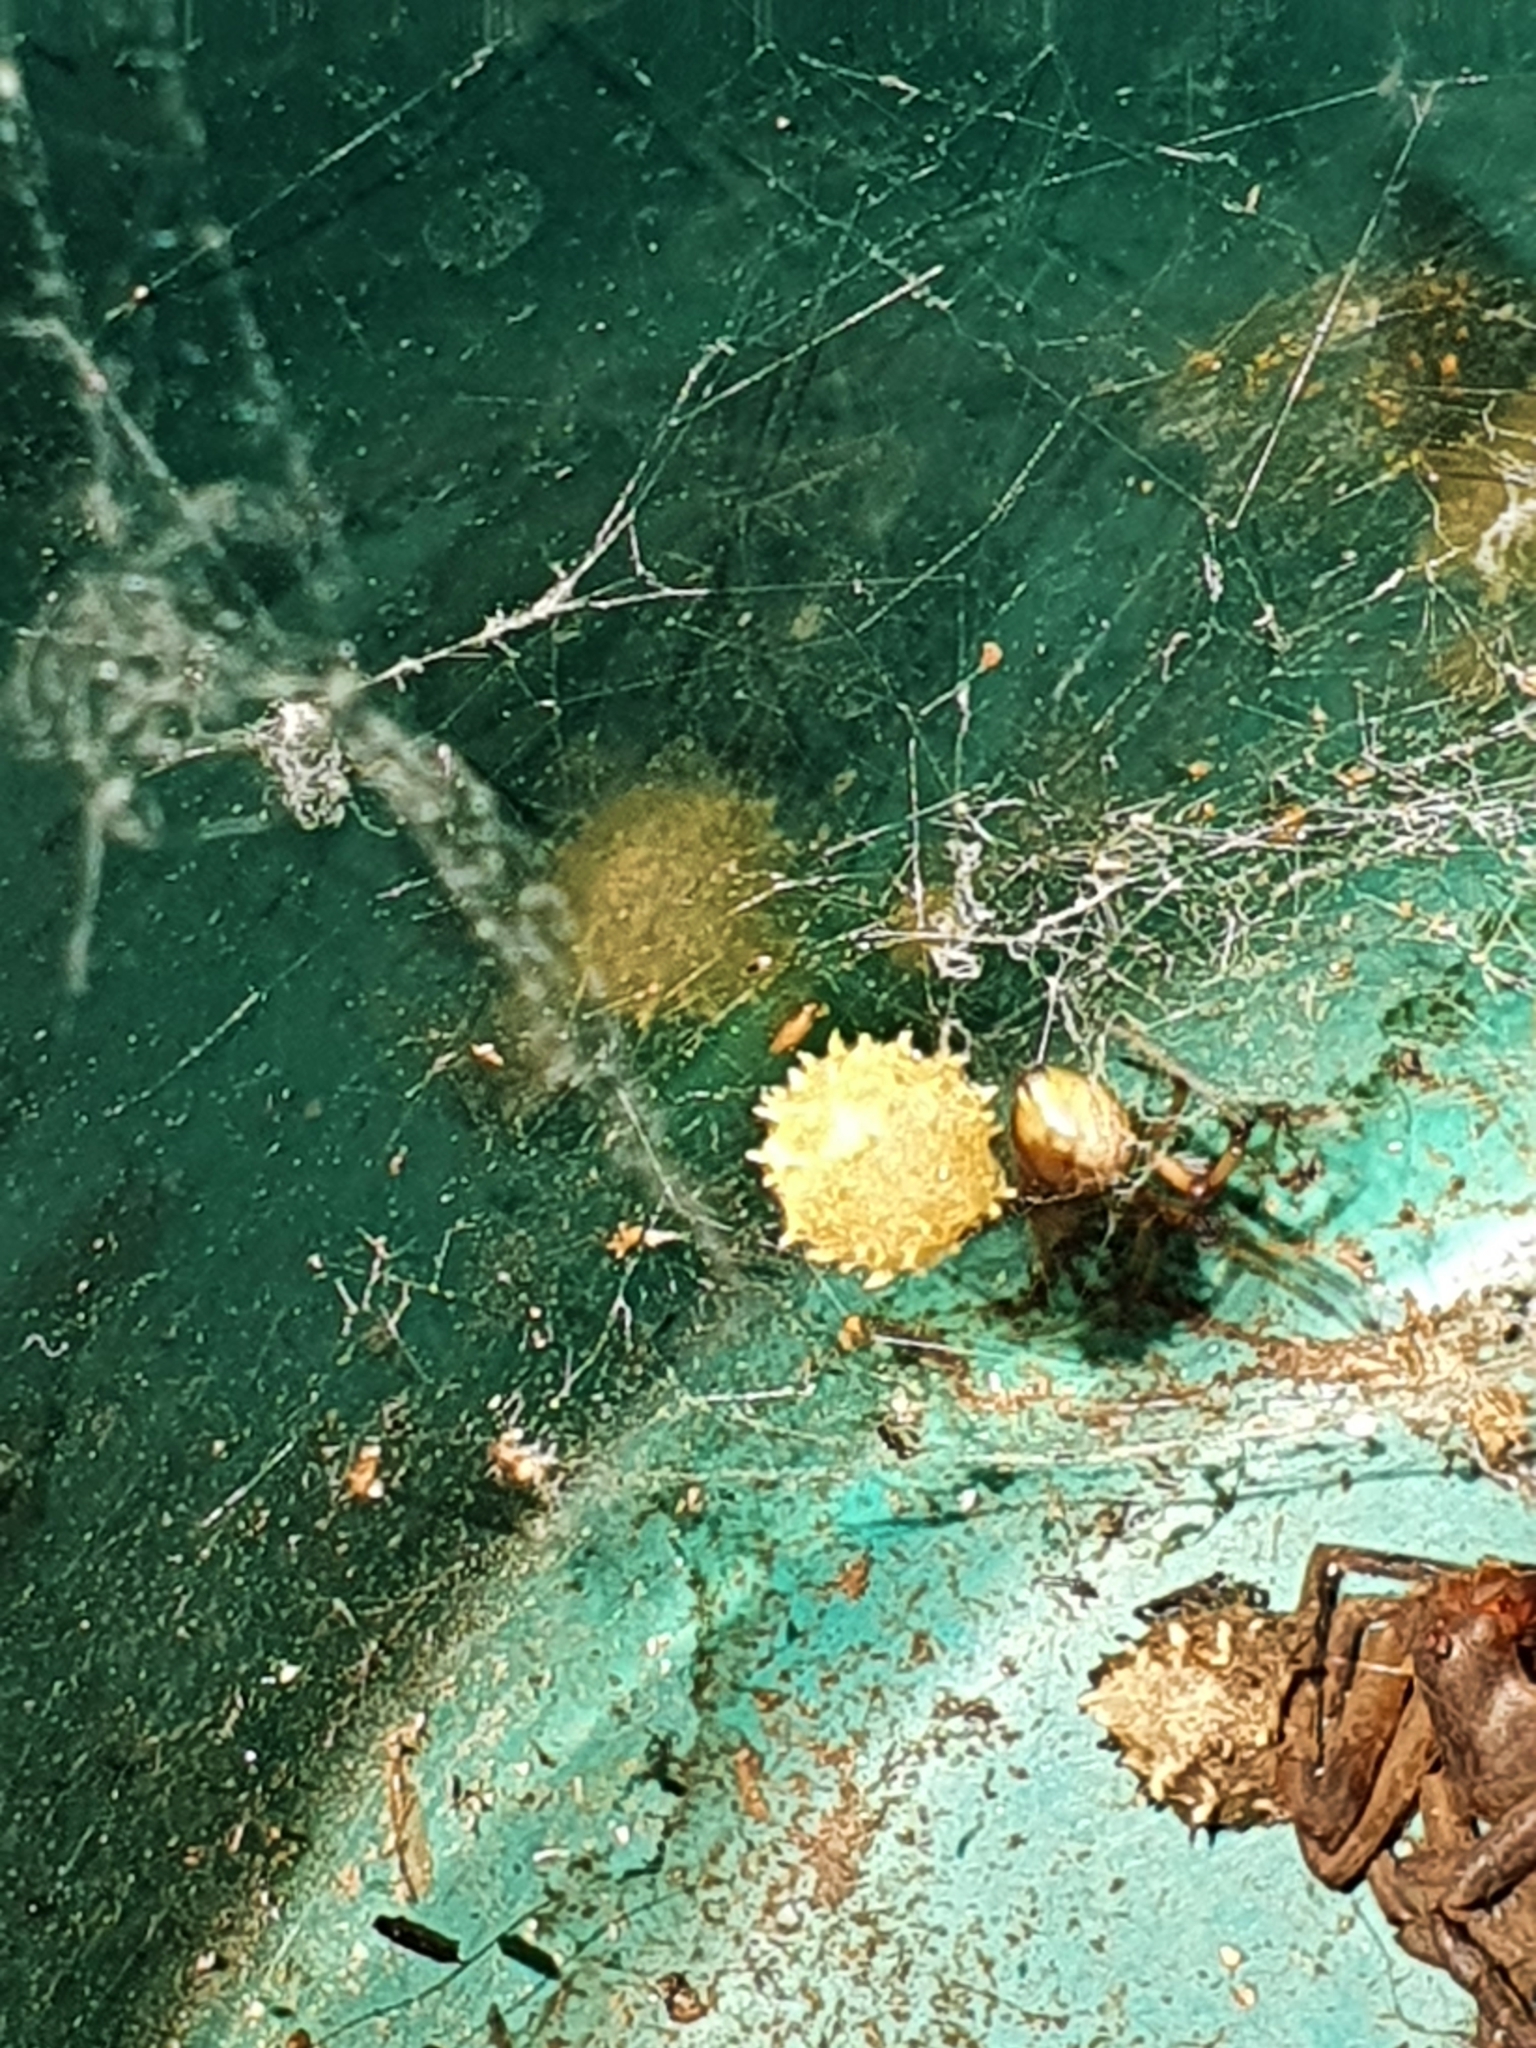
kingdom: Animalia
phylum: Arthropoda
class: Arachnida
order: Araneae
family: Theridiidae
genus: Latrodectus
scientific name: Latrodectus geometricus
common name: Brown widow spider
